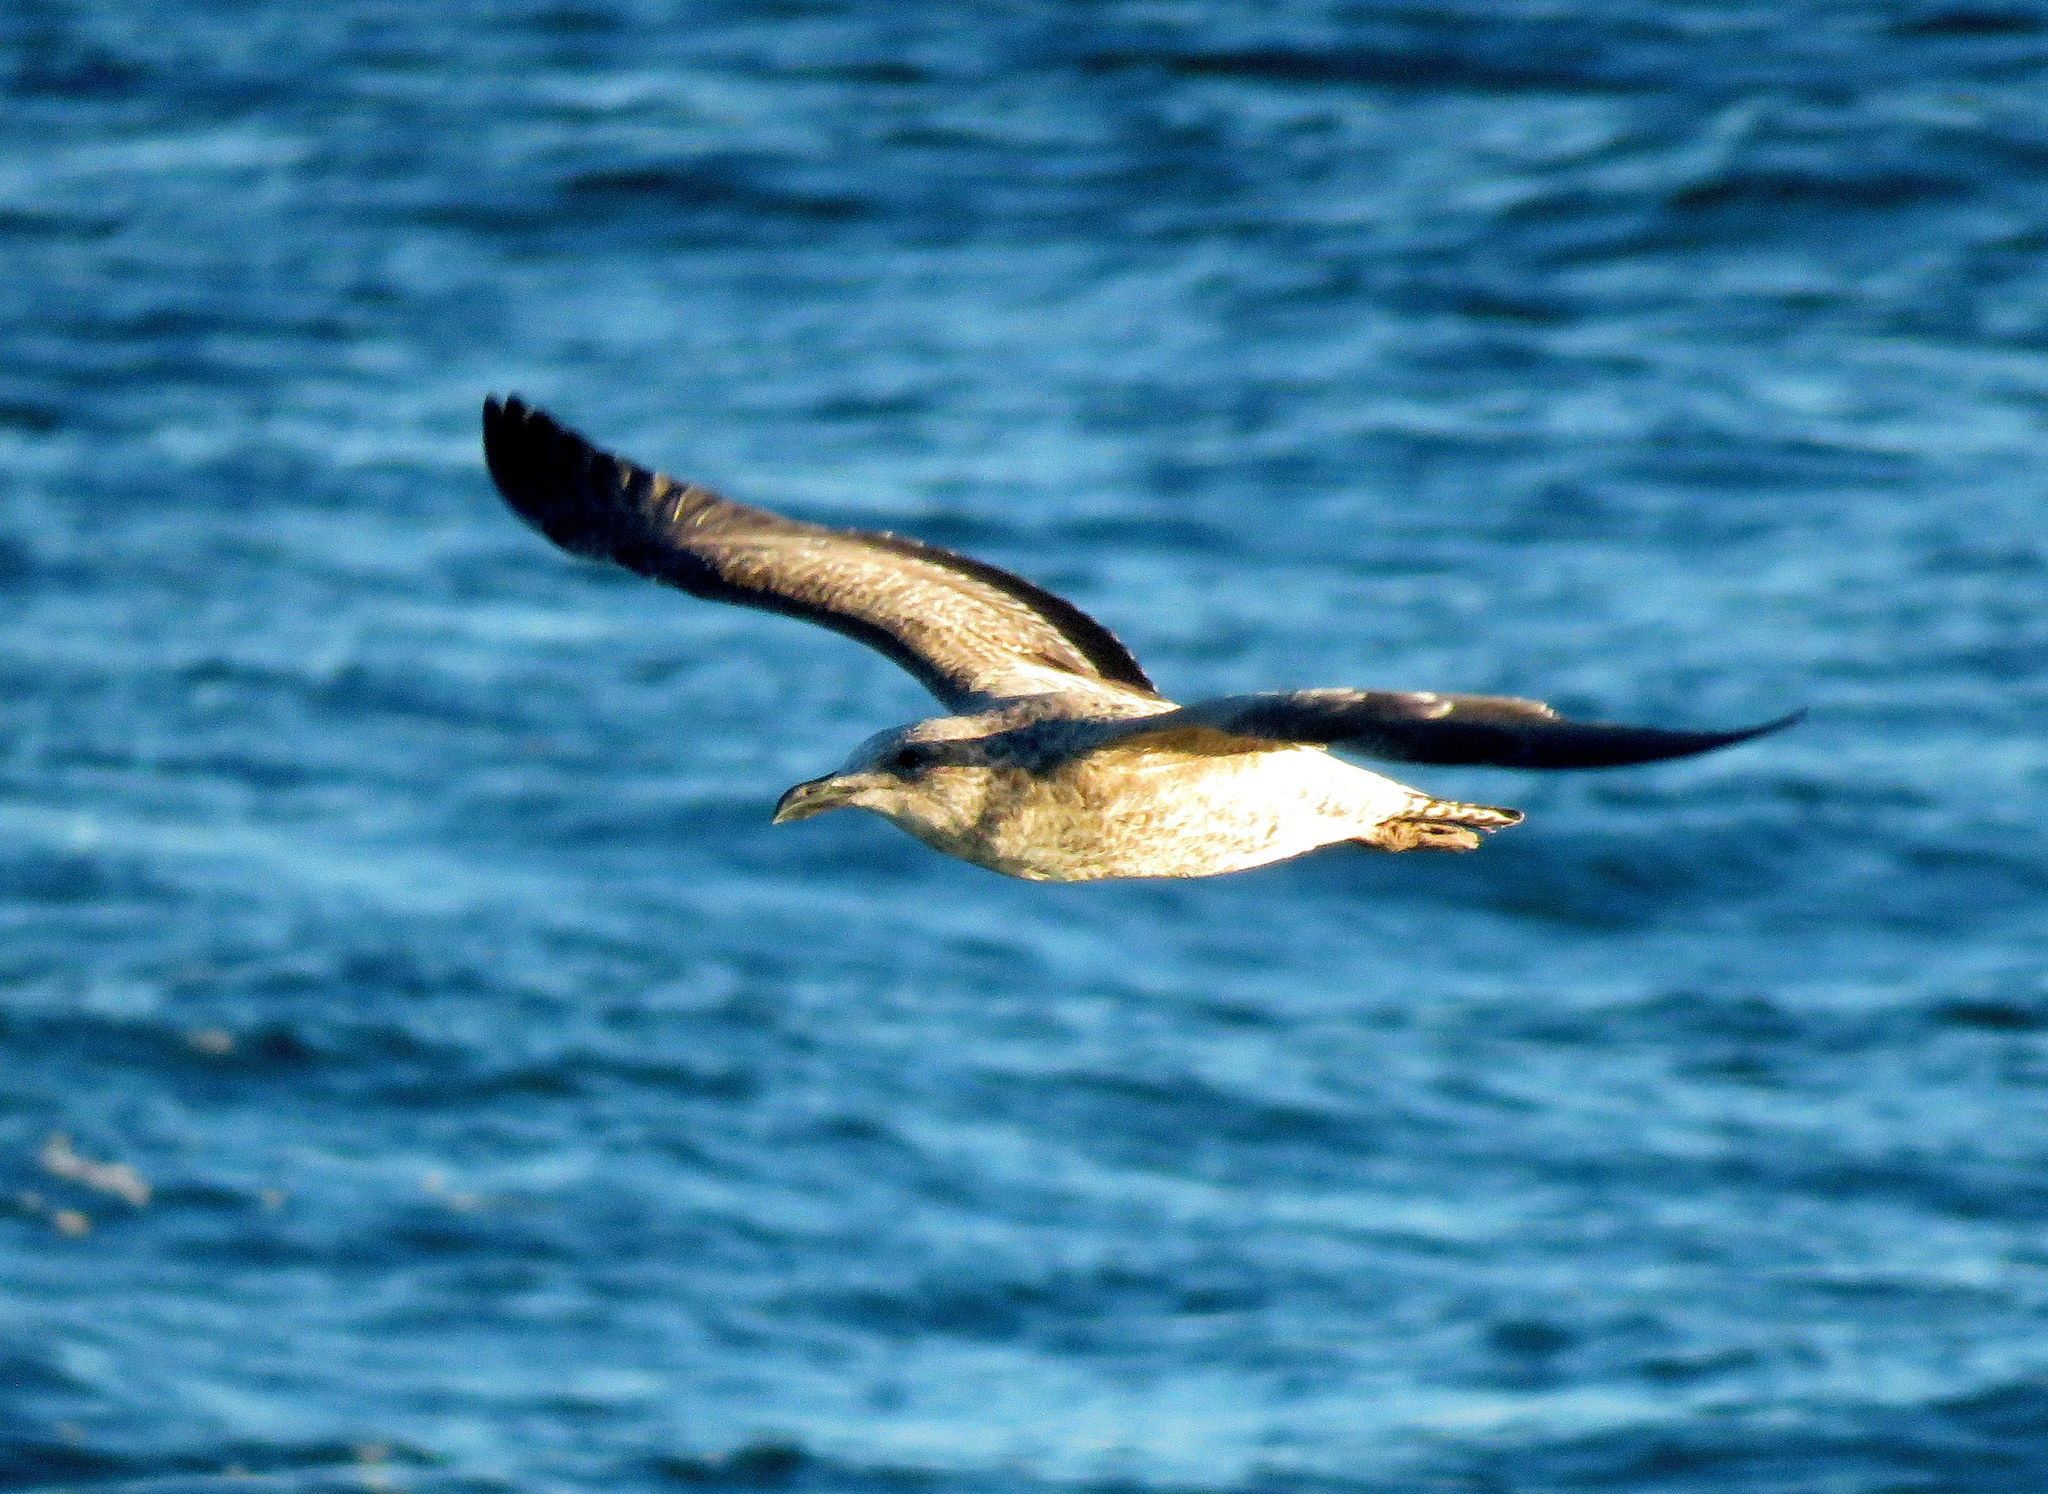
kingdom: Animalia
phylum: Chordata
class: Aves
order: Charadriiformes
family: Laridae
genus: Larus
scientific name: Larus dominicanus
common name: Kelp gull
